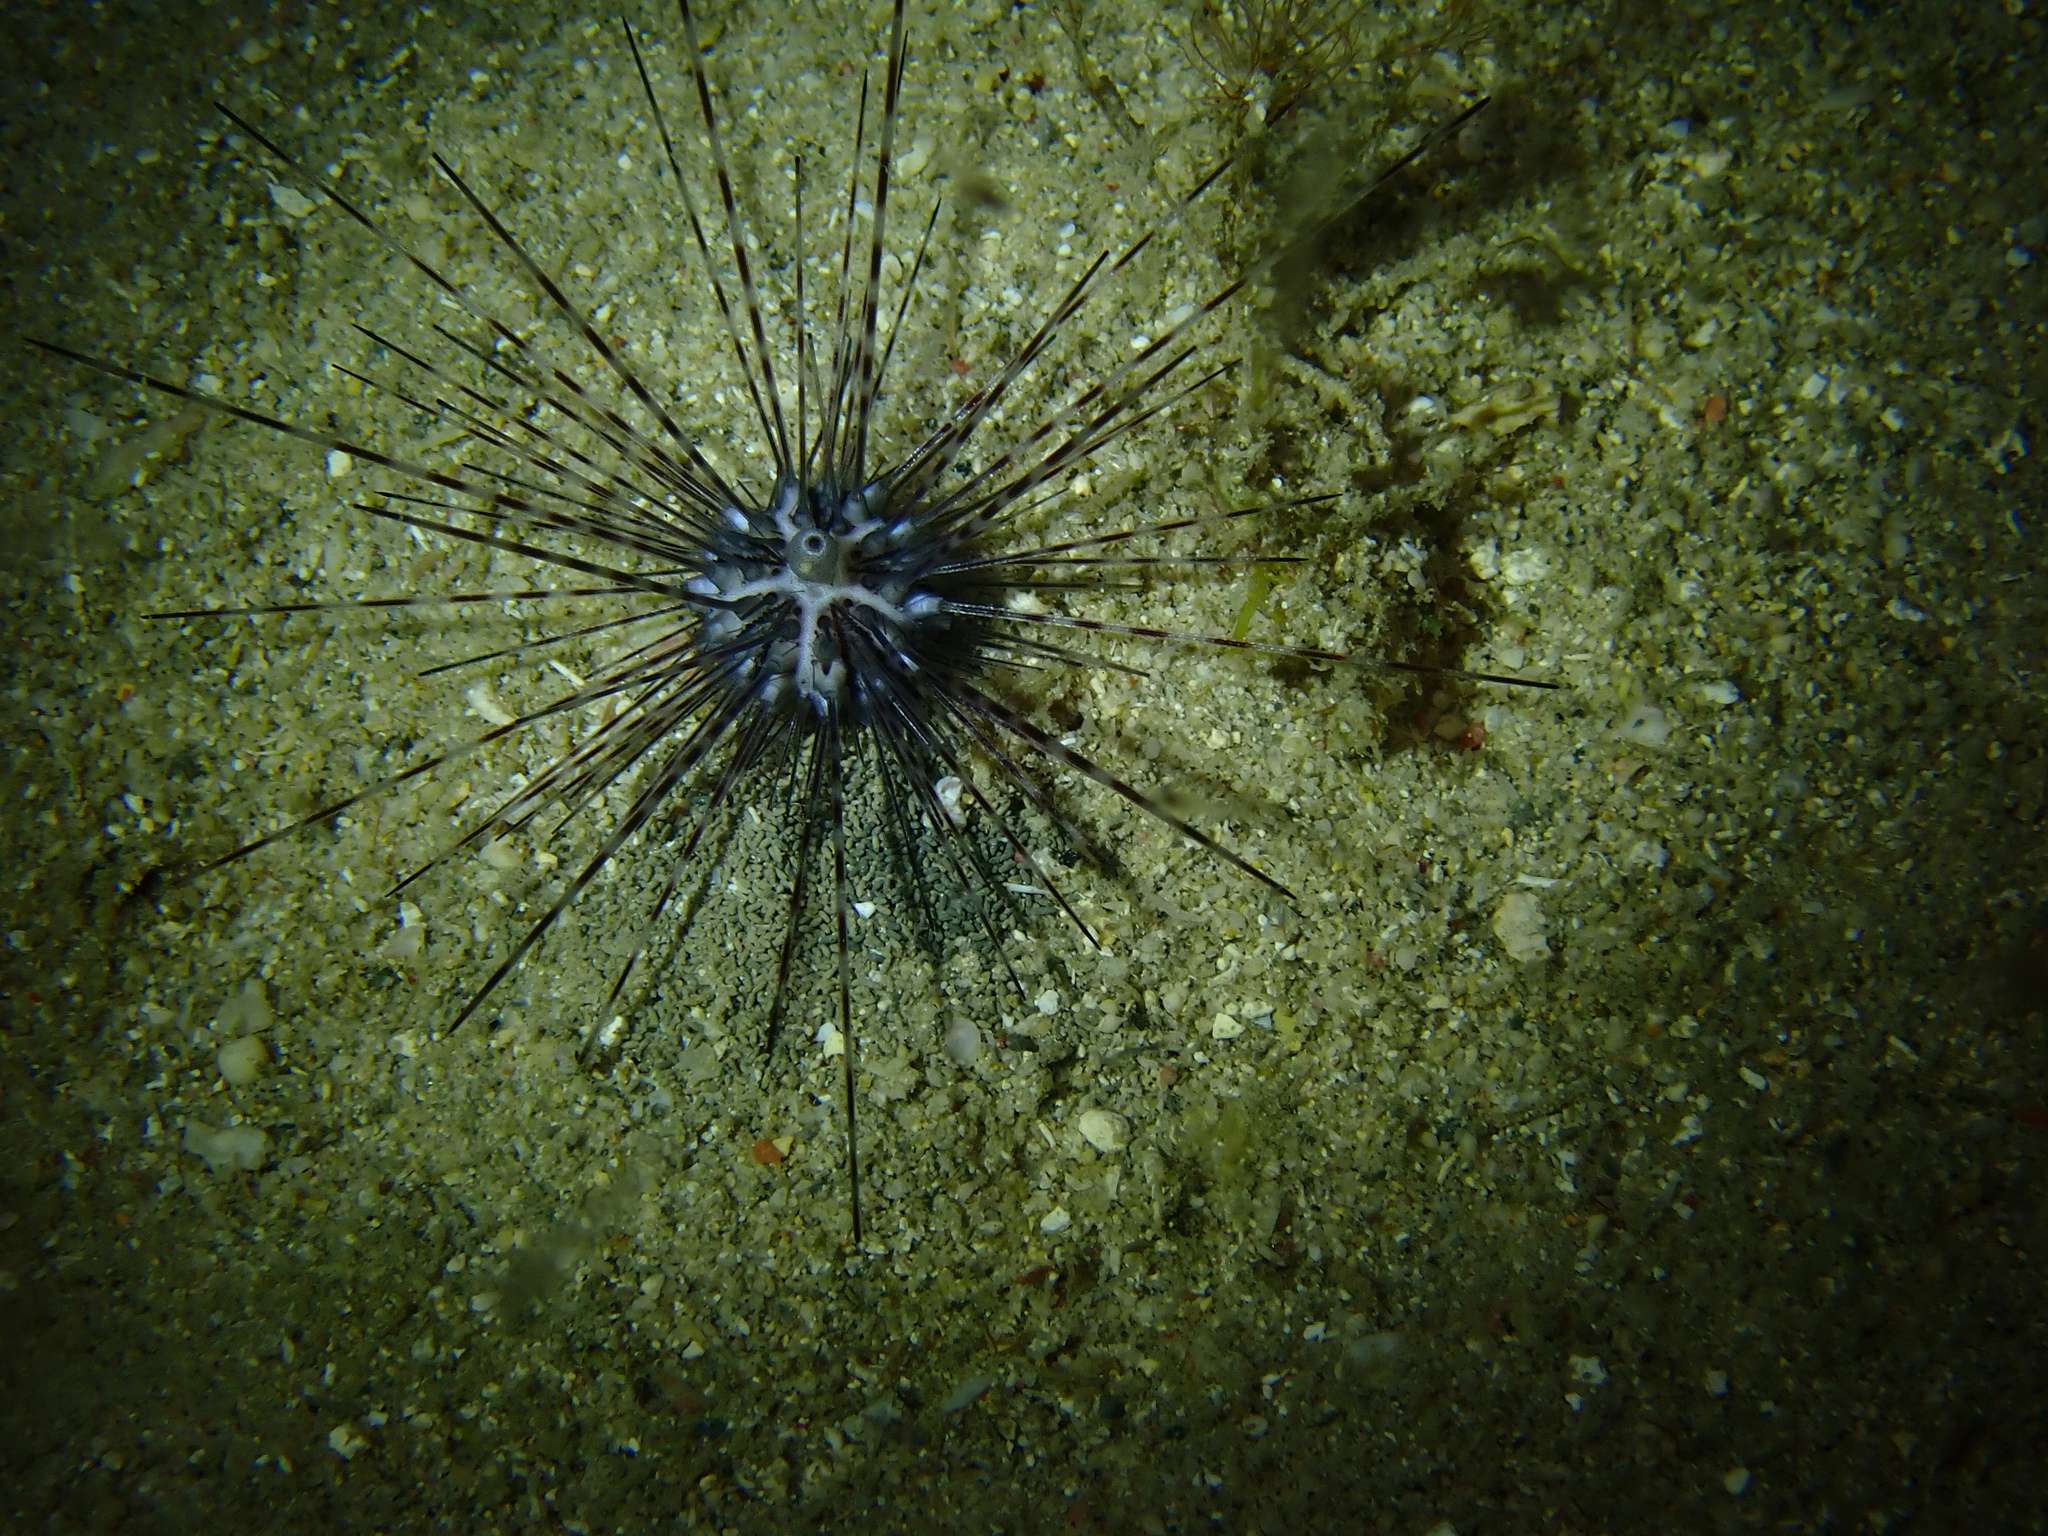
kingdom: Animalia
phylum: Echinodermata
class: Echinoidea
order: Diadematoida
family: Diadematidae
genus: Diadema
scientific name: Diadema savignyi
